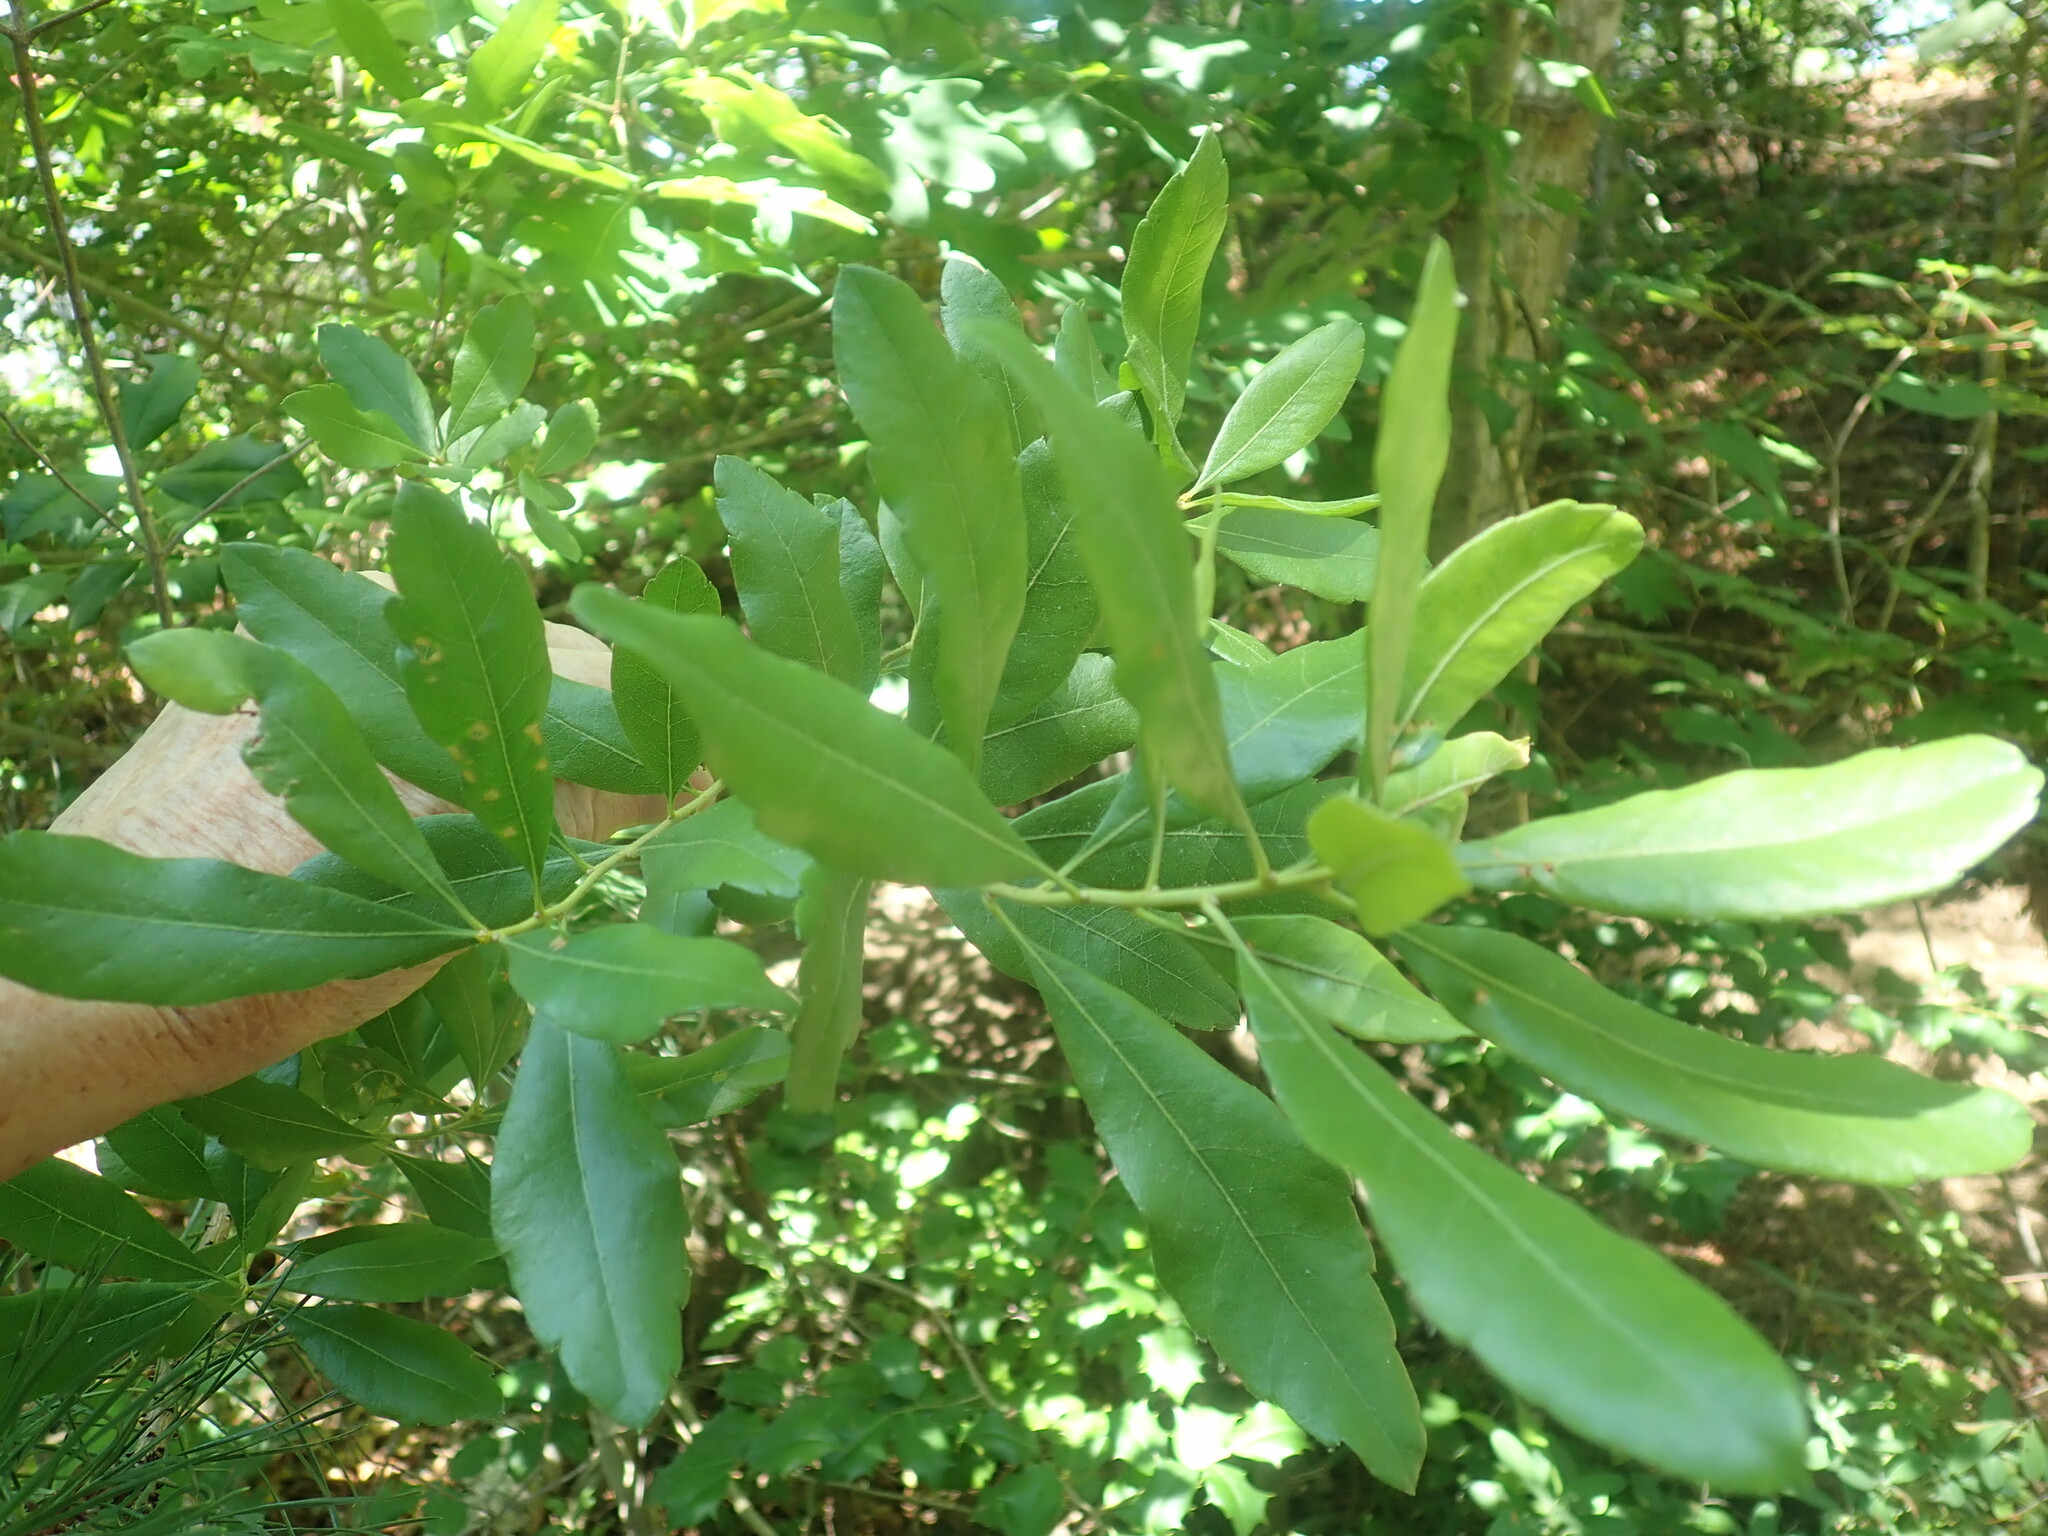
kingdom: Plantae
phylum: Tracheophyta
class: Magnoliopsida
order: Fagales
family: Myricaceae
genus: Morella
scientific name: Morella pensylvanica
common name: Northern bayberry
